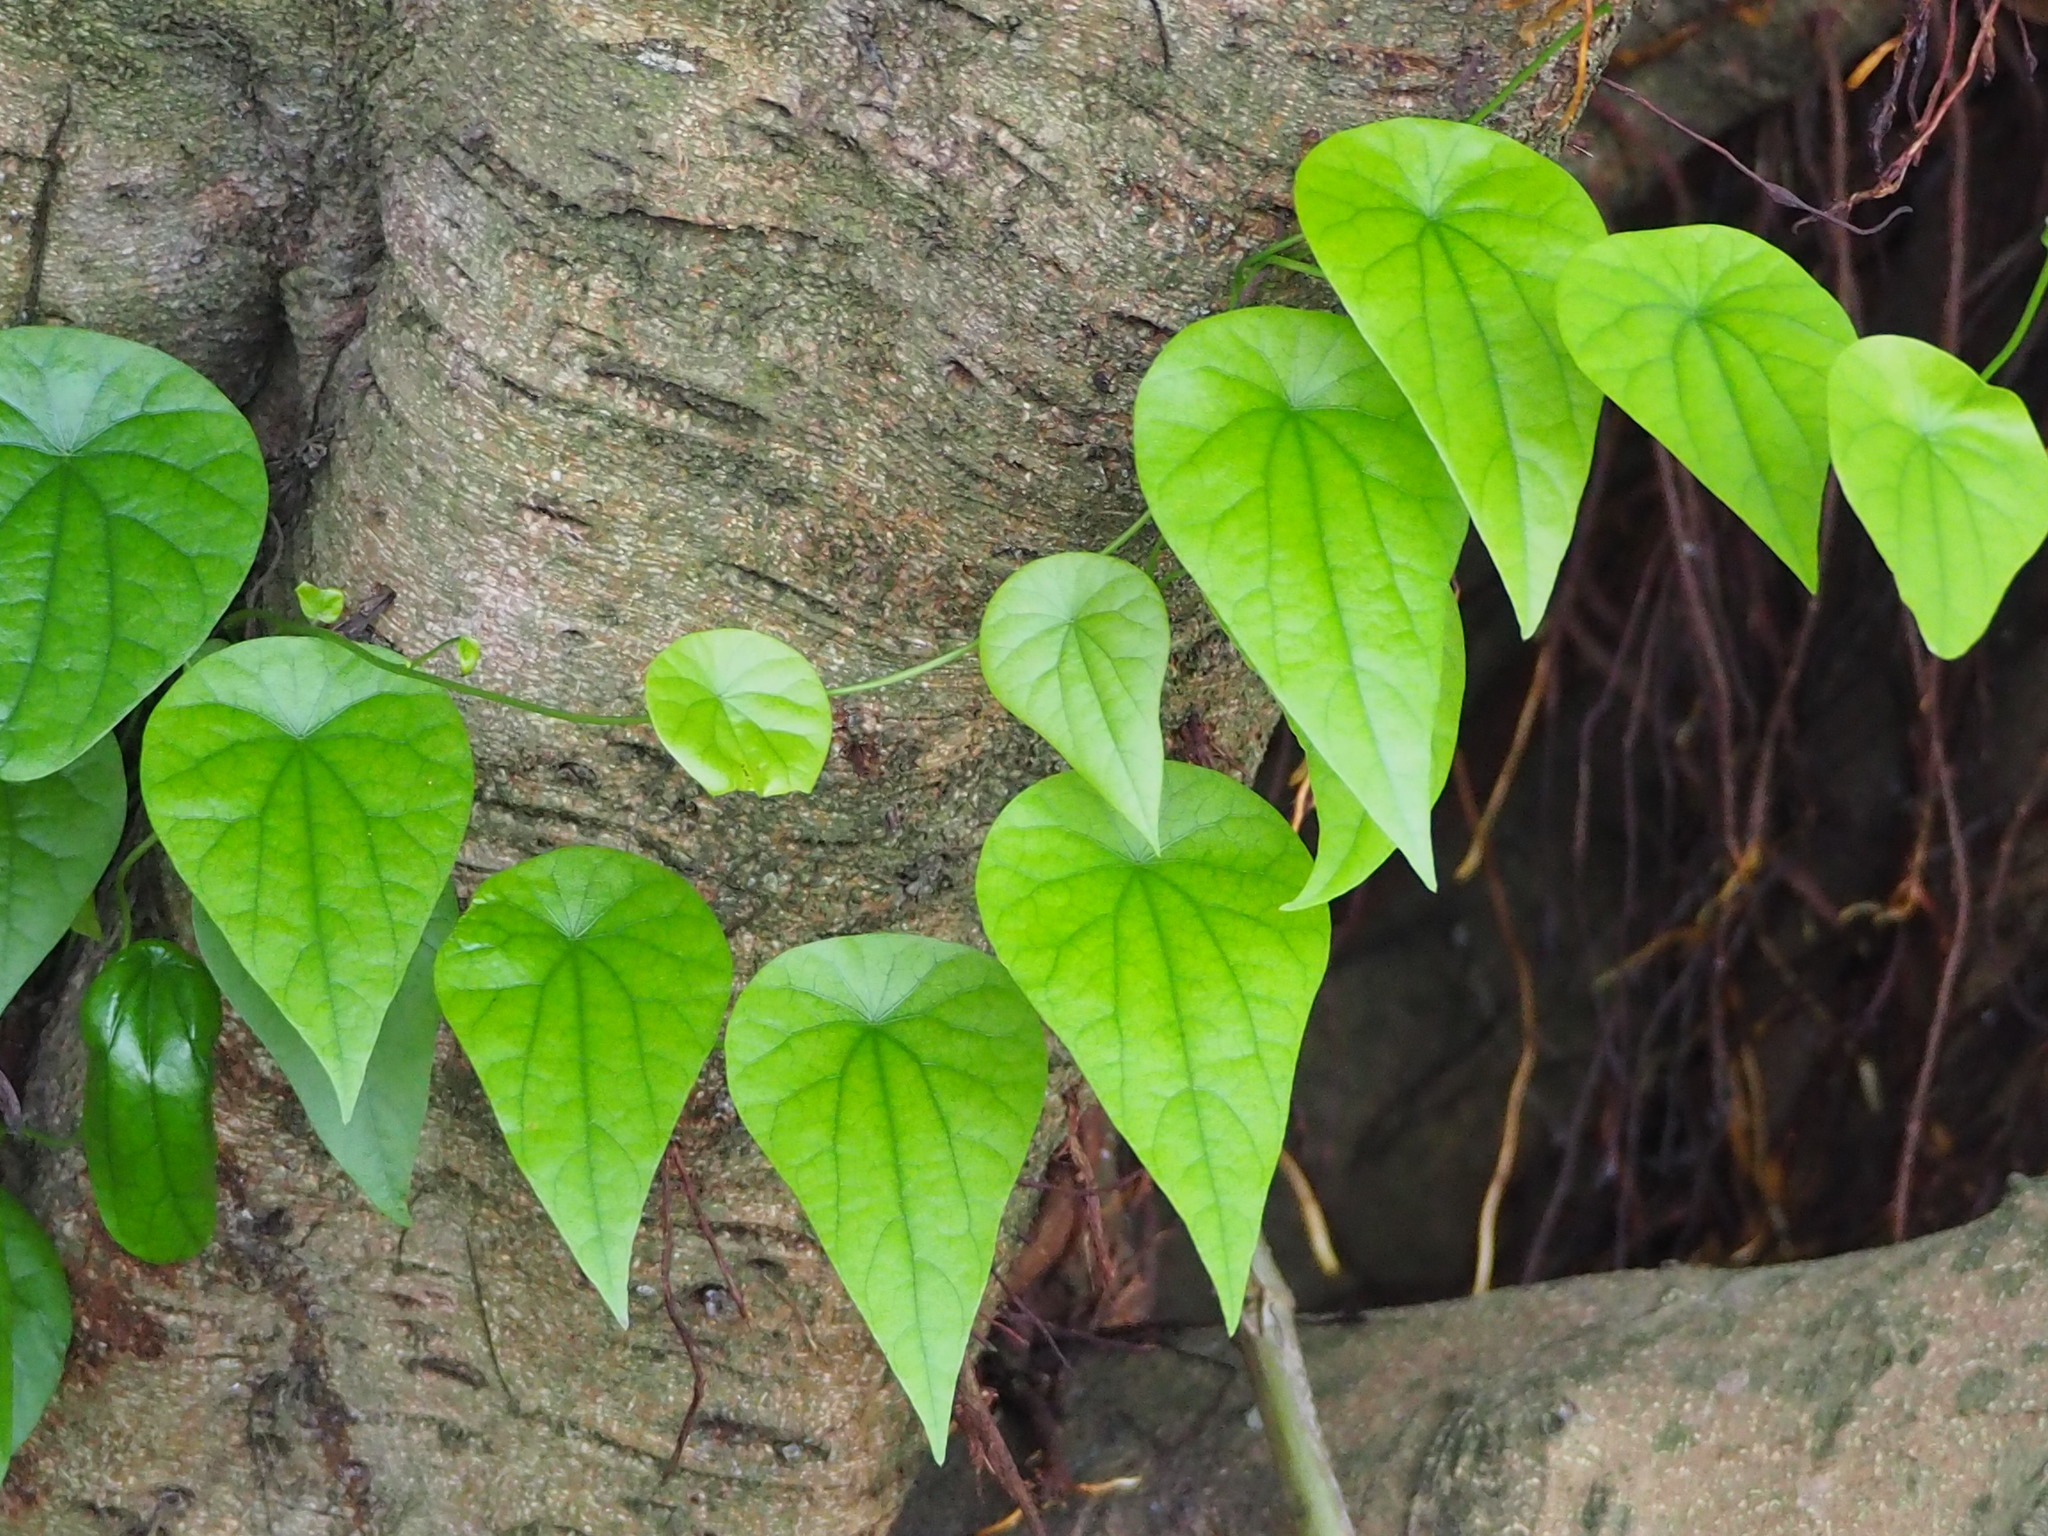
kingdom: Plantae
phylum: Tracheophyta
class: Magnoliopsida
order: Ranunculales
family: Menispermaceae
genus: Stephania
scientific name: Stephania japonica
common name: Snake vine
